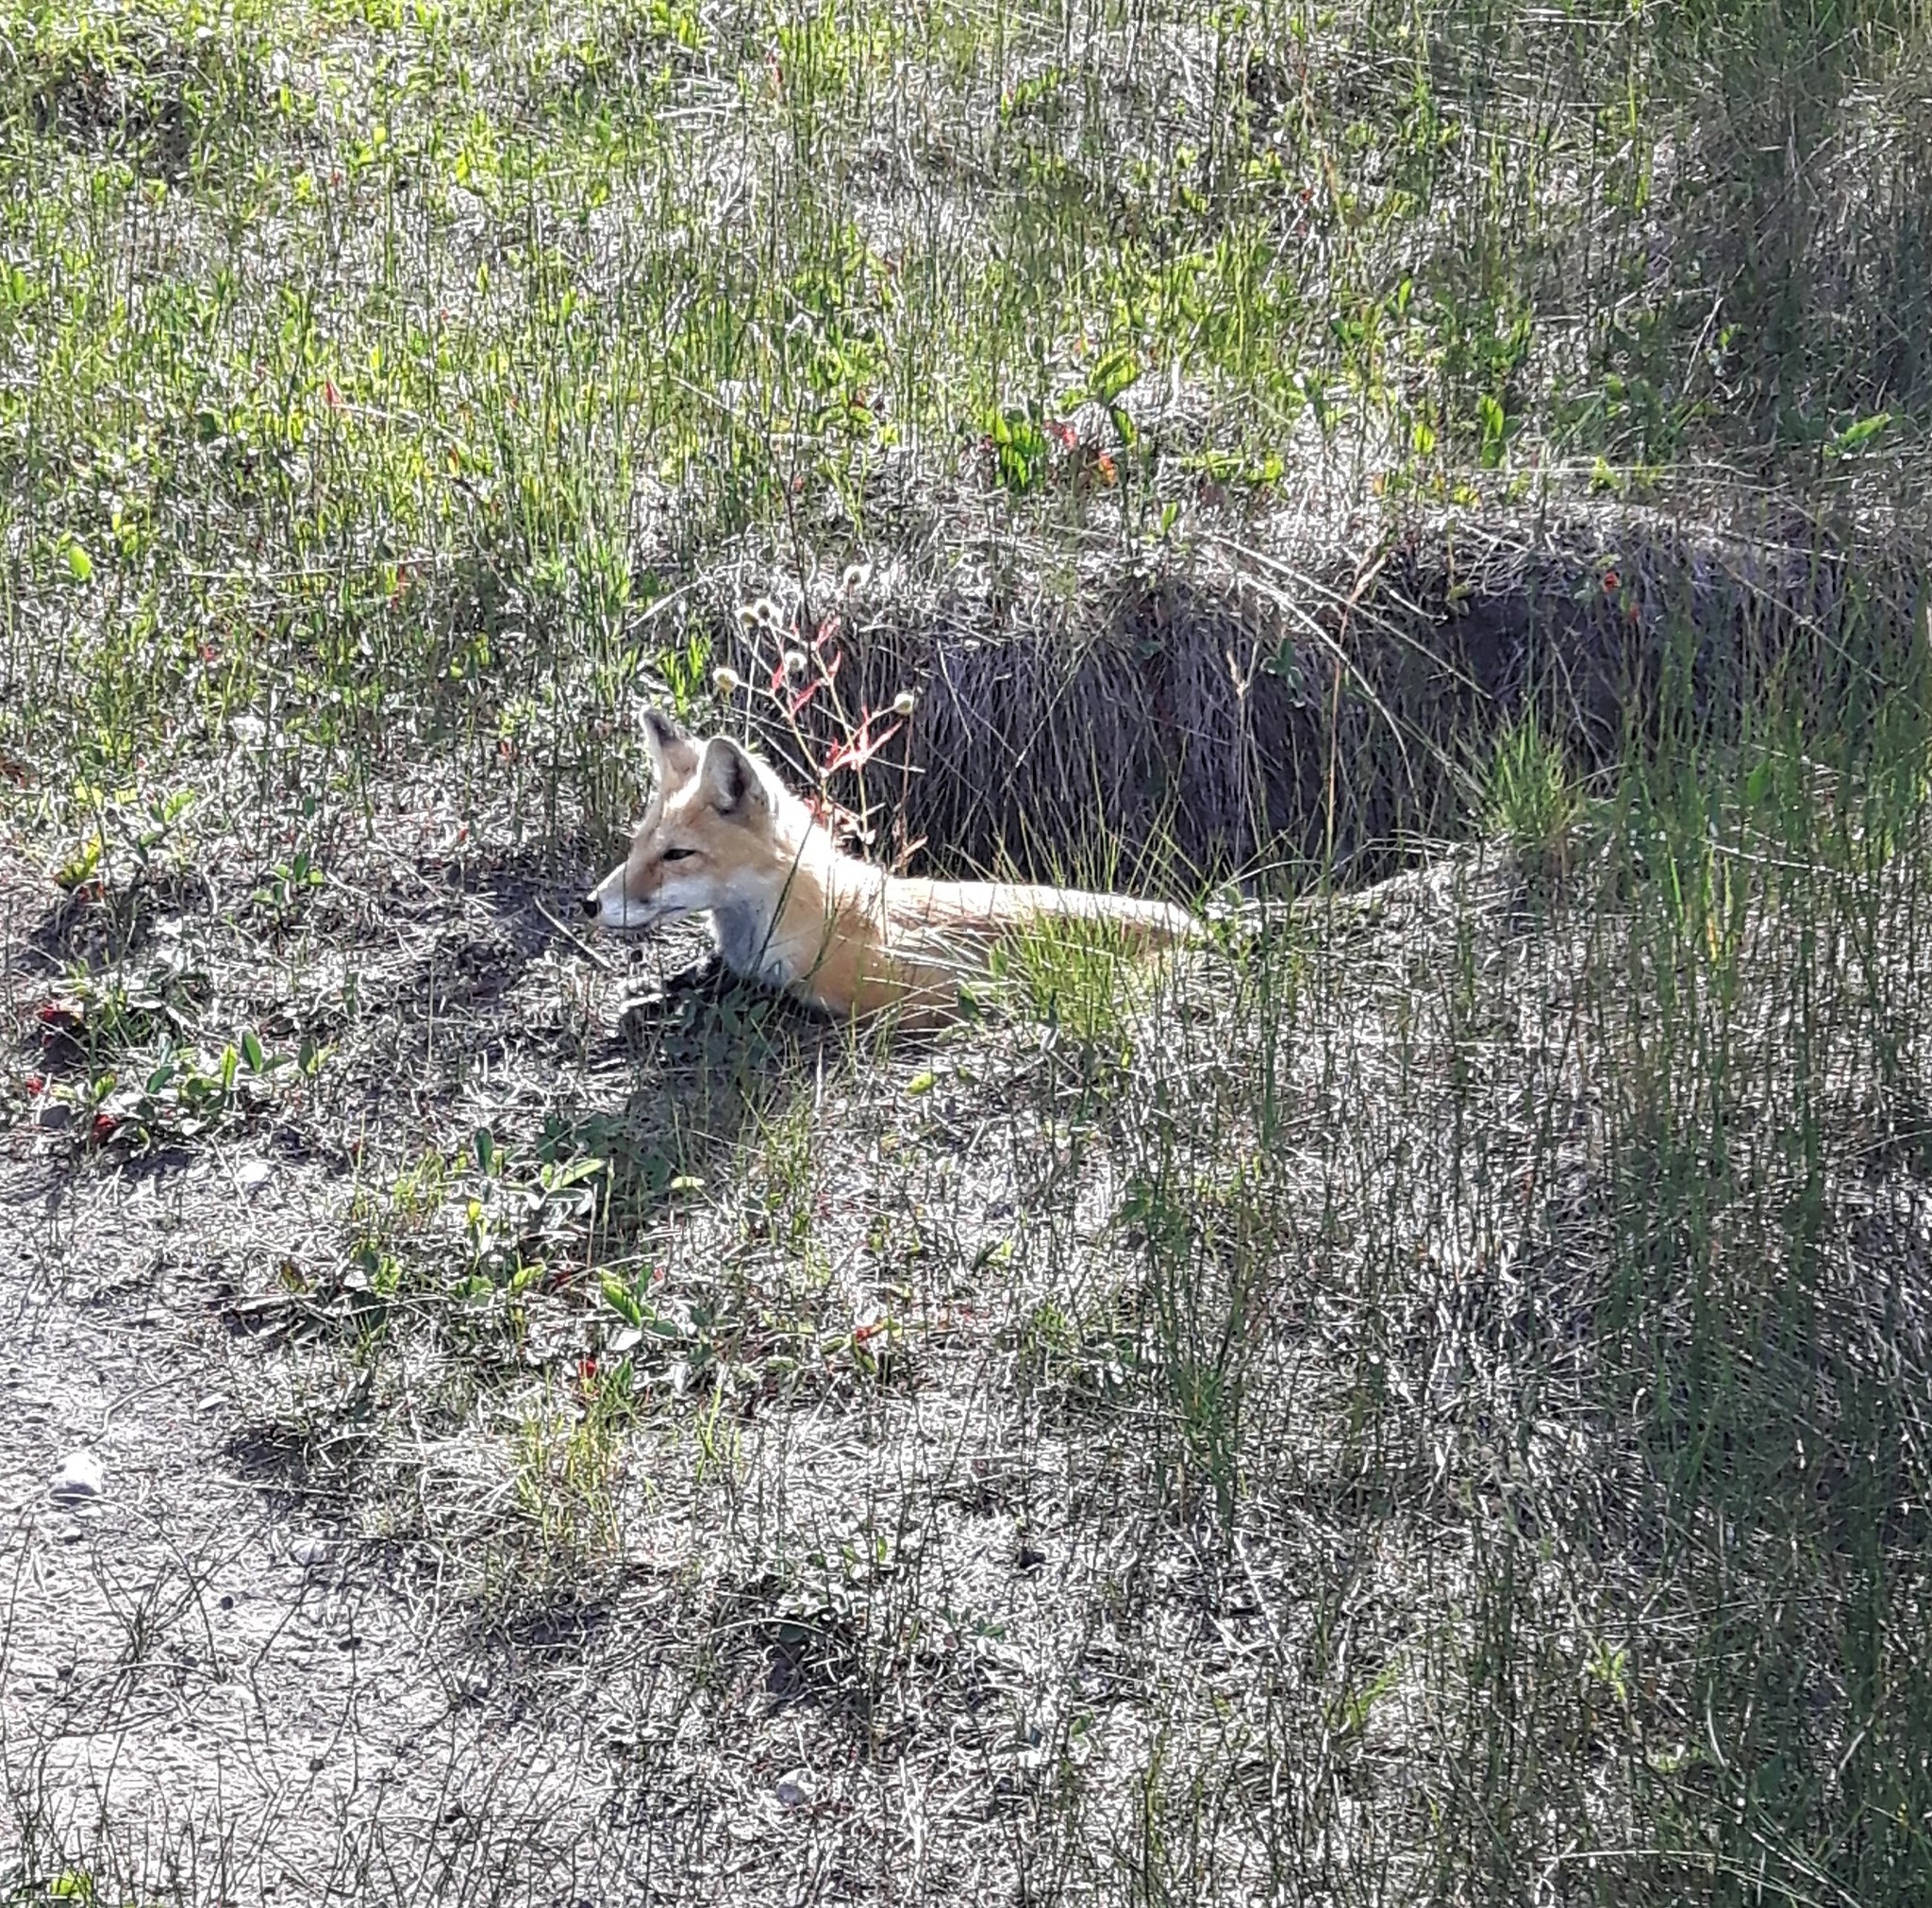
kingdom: Animalia
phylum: Chordata
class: Mammalia
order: Carnivora
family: Canidae
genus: Vulpes
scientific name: Vulpes vulpes
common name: Red fox
